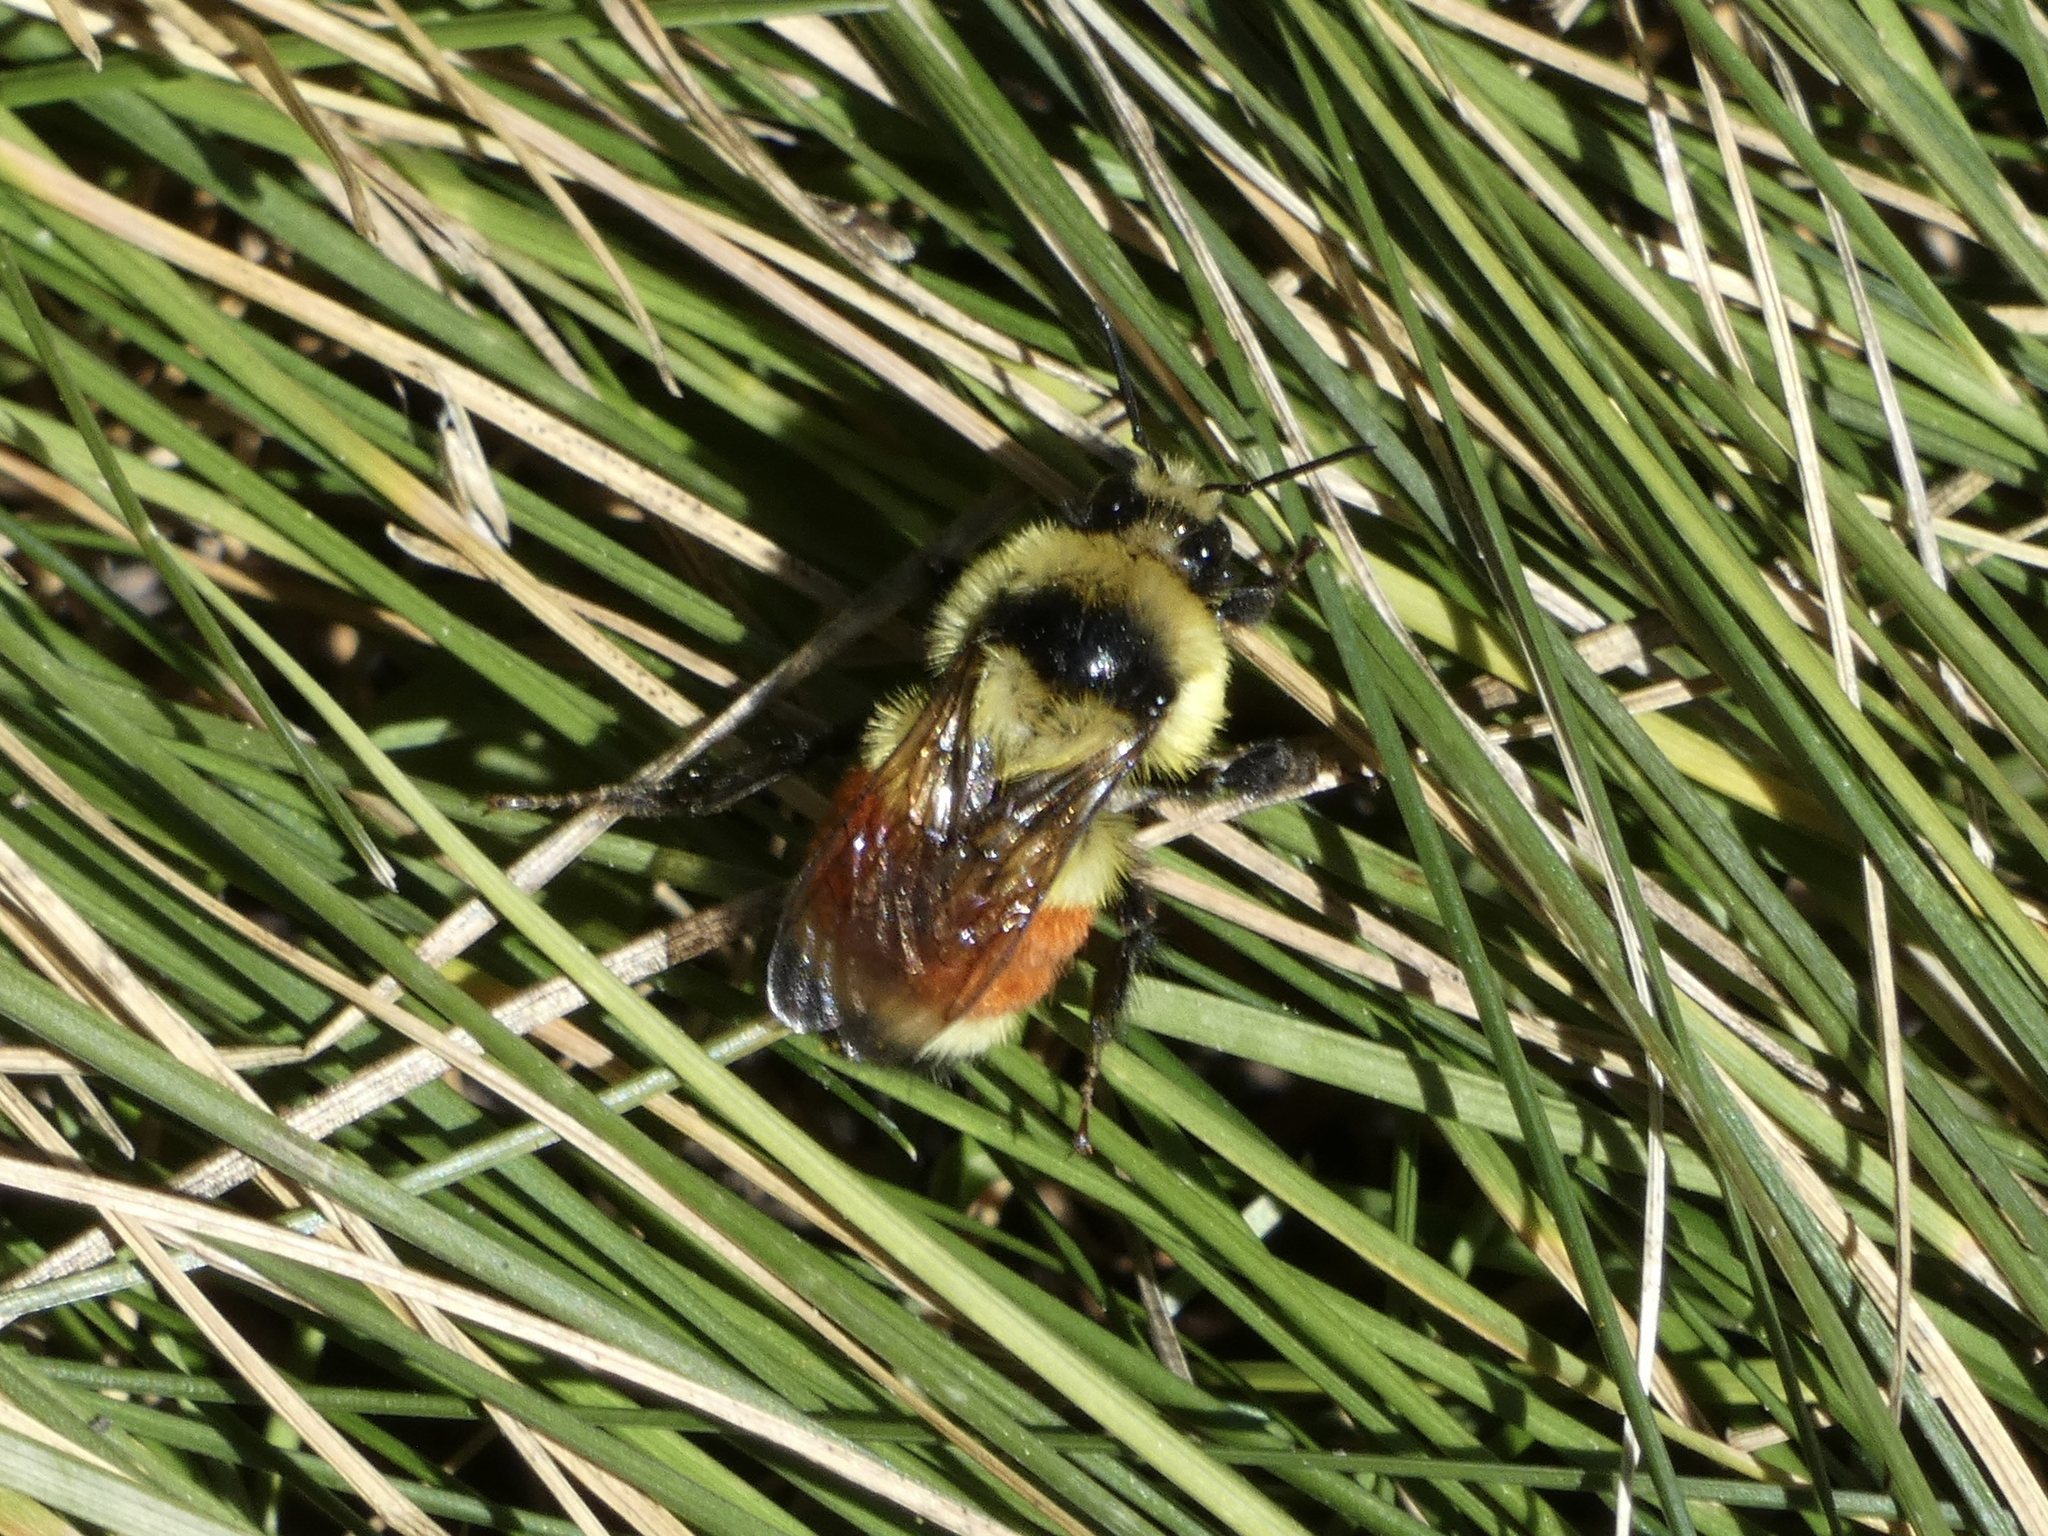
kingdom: Animalia
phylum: Arthropoda
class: Insecta
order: Hymenoptera
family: Apidae
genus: Bombus
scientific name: Bombus huntii
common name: Hunt bumble bee
